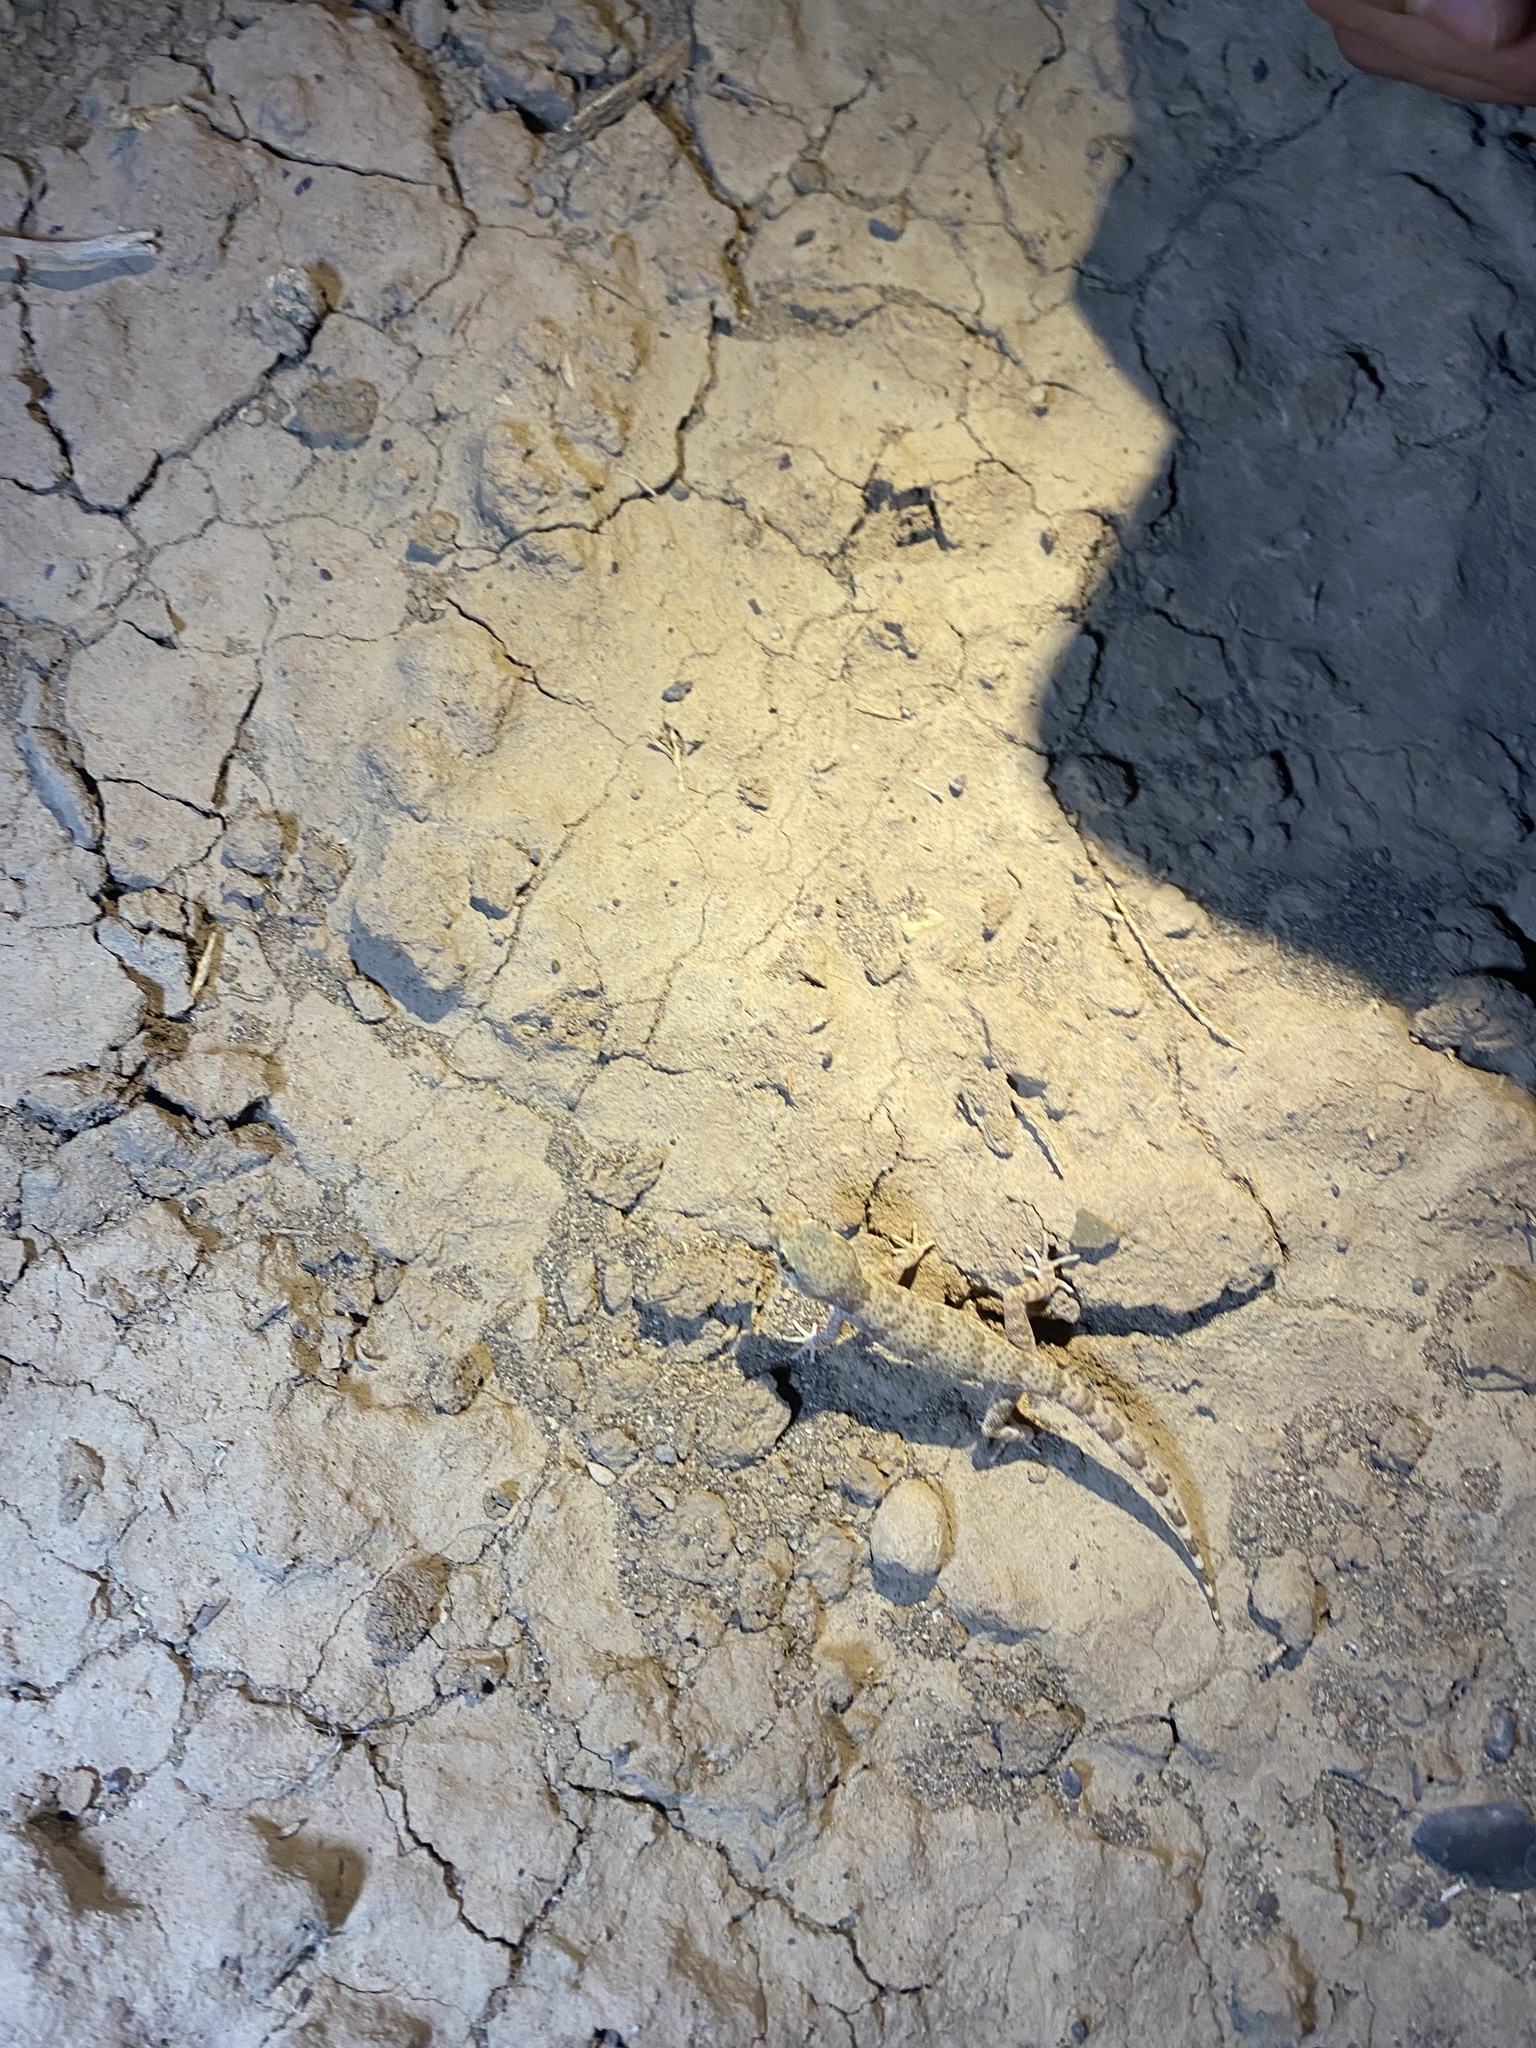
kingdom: Animalia
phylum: Chordata
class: Squamata
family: Gekkonidae
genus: Bunopus
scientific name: Bunopus crassicauda
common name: Thick-tailed tuberculated gecko
